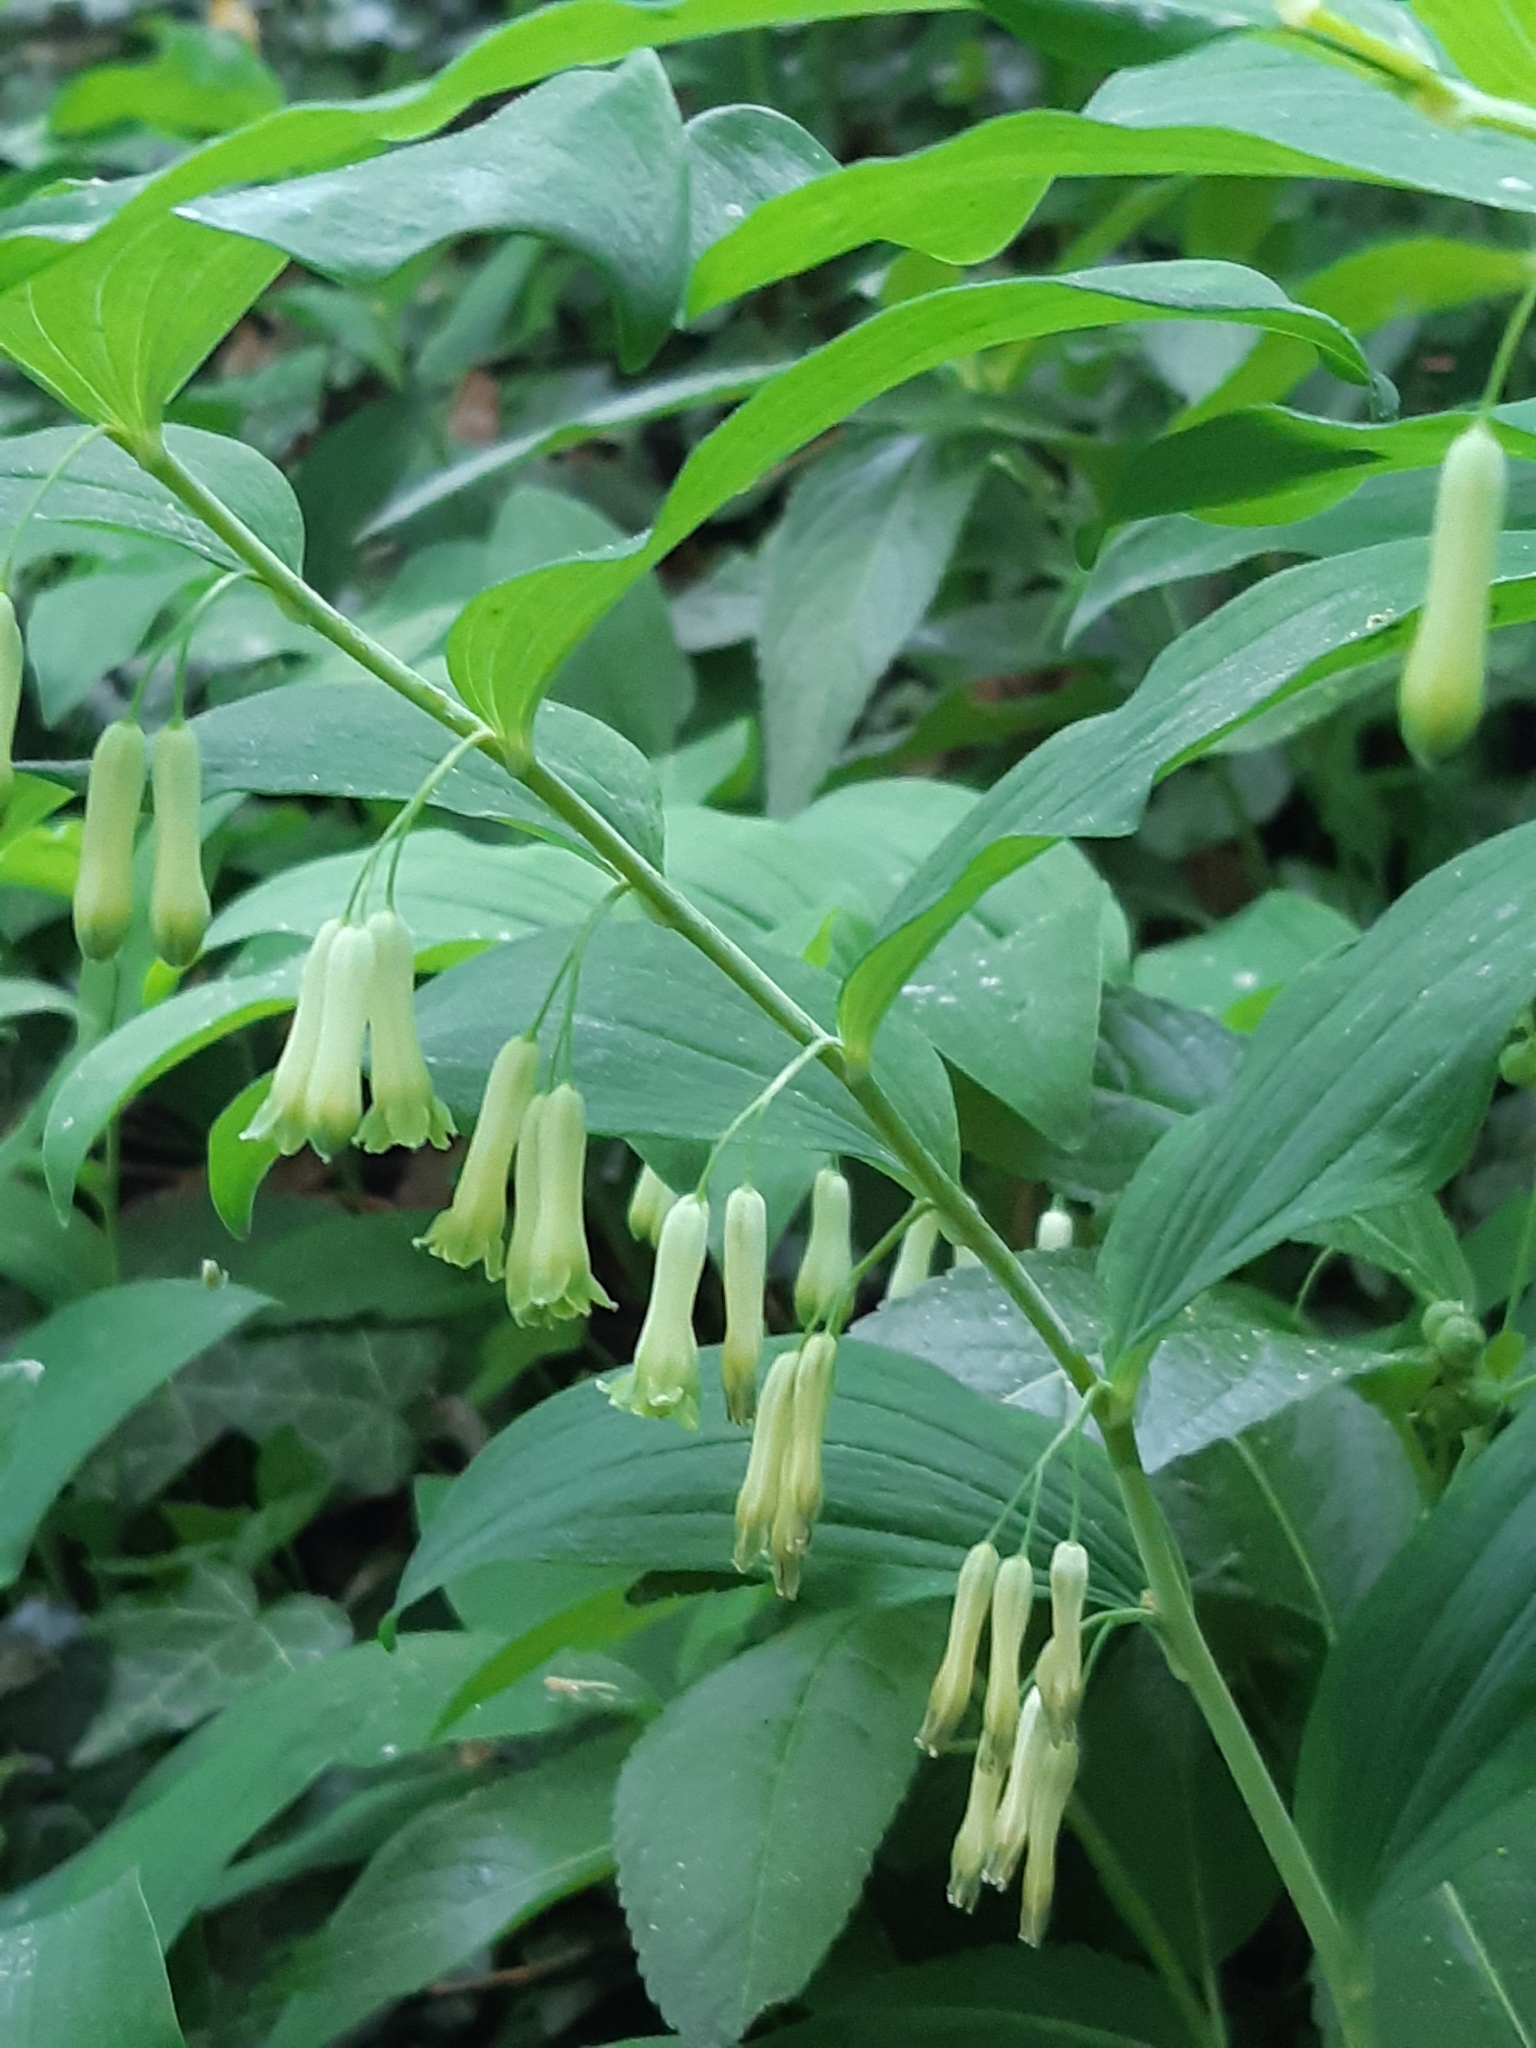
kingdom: Plantae
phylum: Tracheophyta
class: Liliopsida
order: Asparagales
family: Asparagaceae
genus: Polygonatum
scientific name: Polygonatum multiflorum
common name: Solomon's-seal
